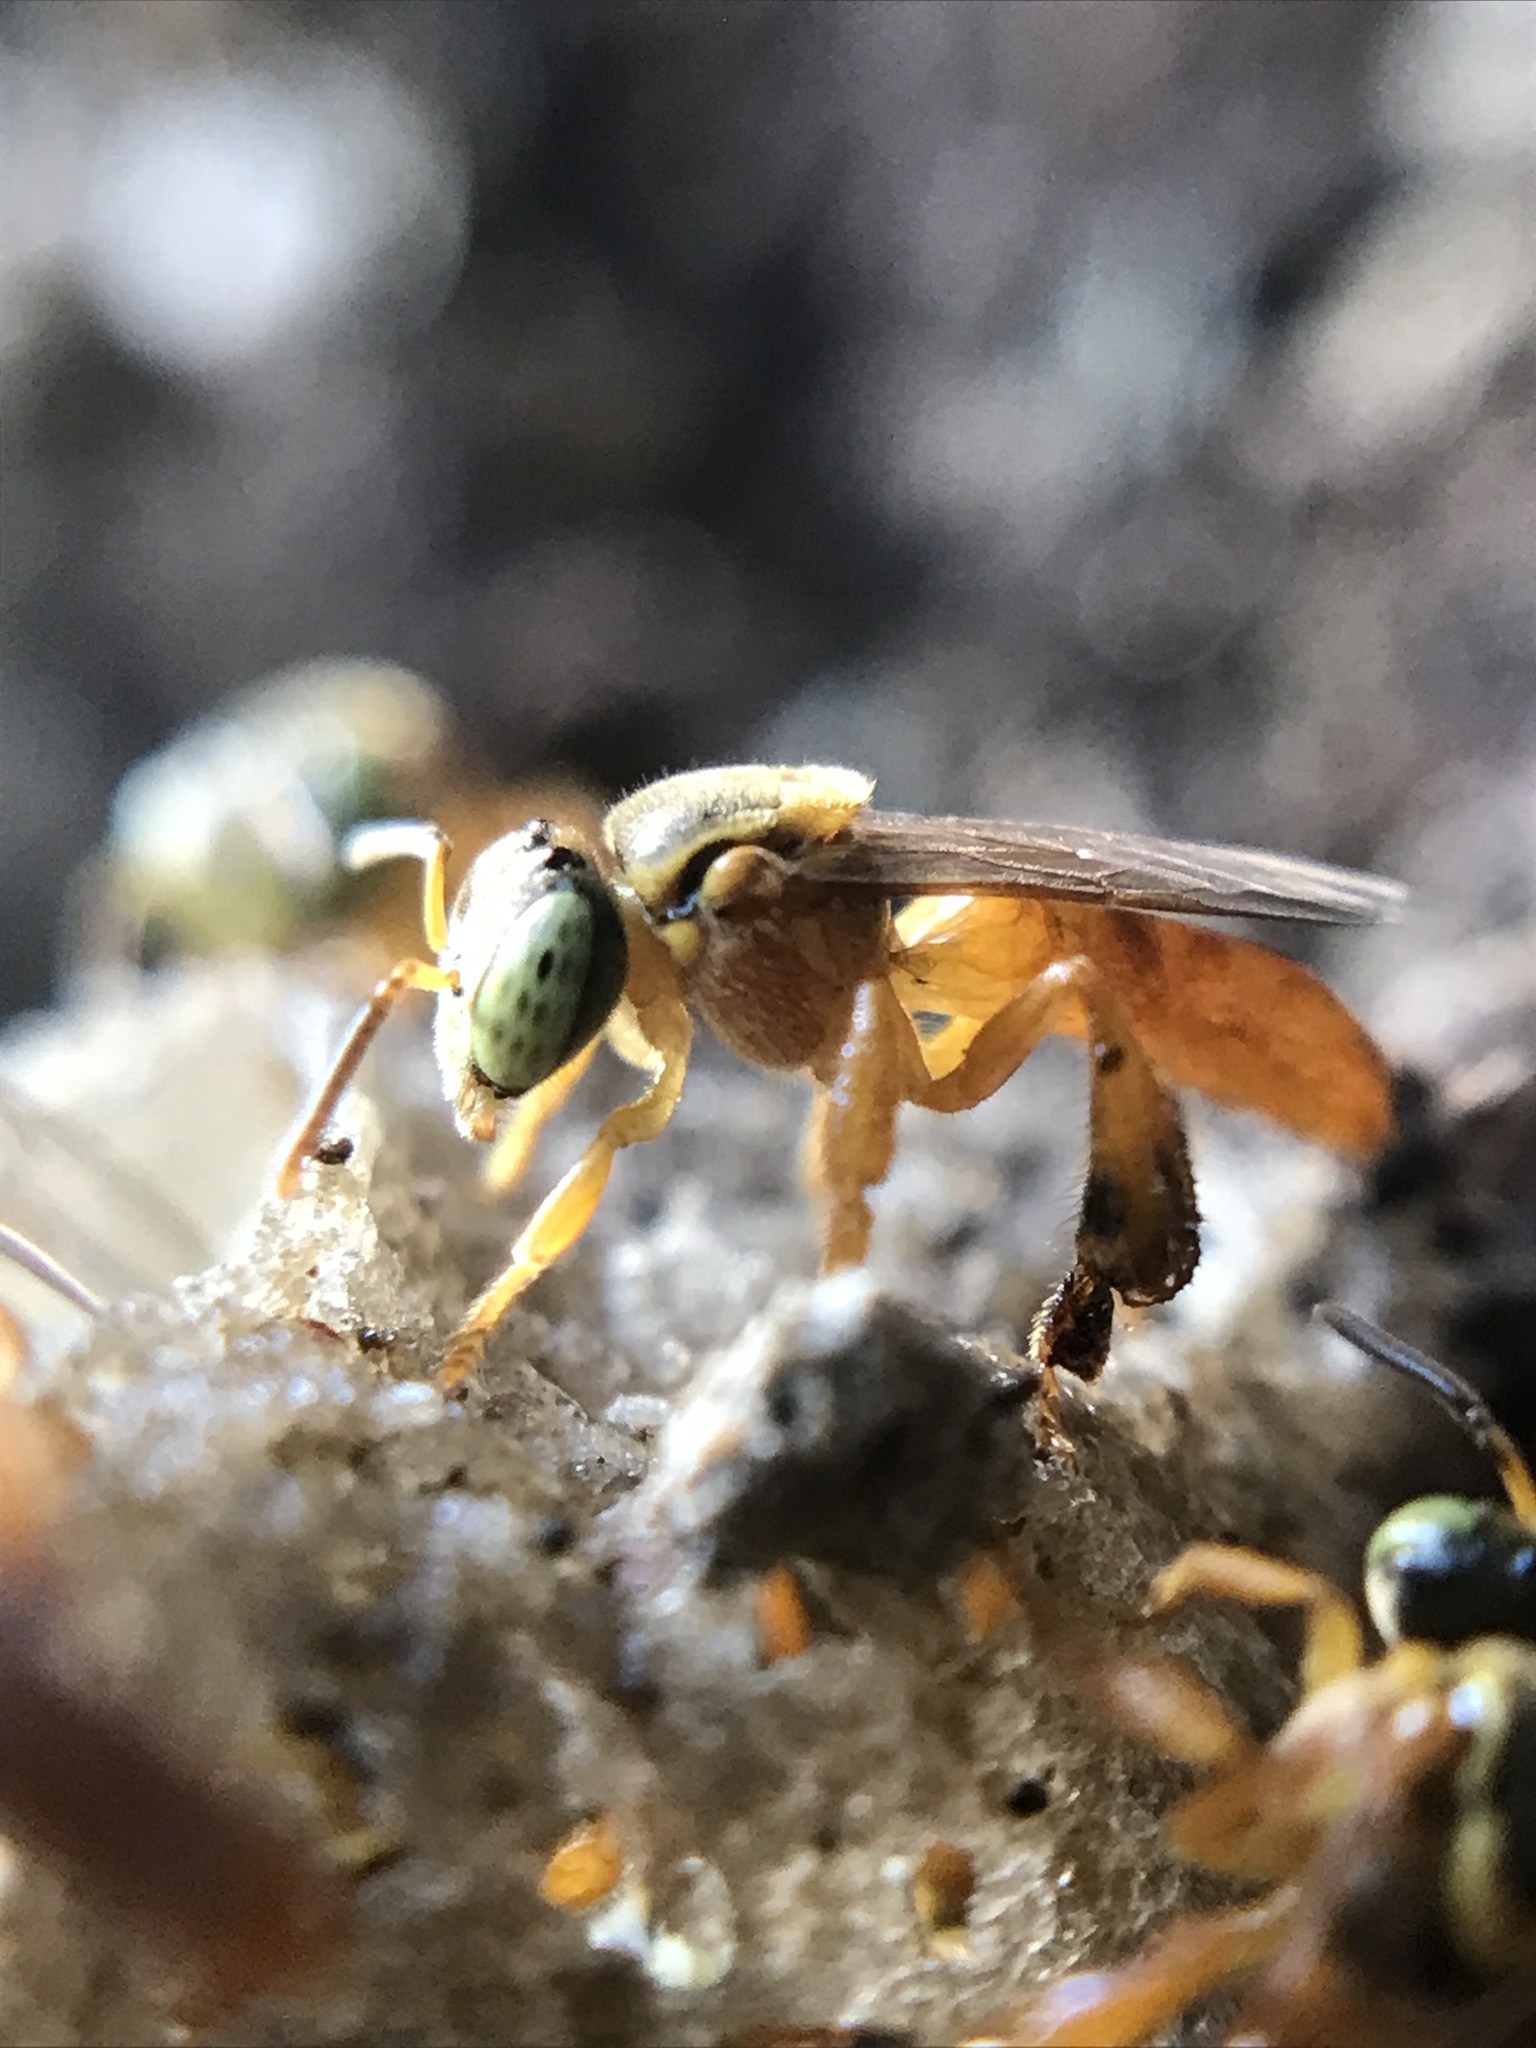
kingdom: Animalia
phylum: Arthropoda
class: Insecta
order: Hymenoptera
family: Apidae
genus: Tetragonisca
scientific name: Tetragonisca fiebrigi
